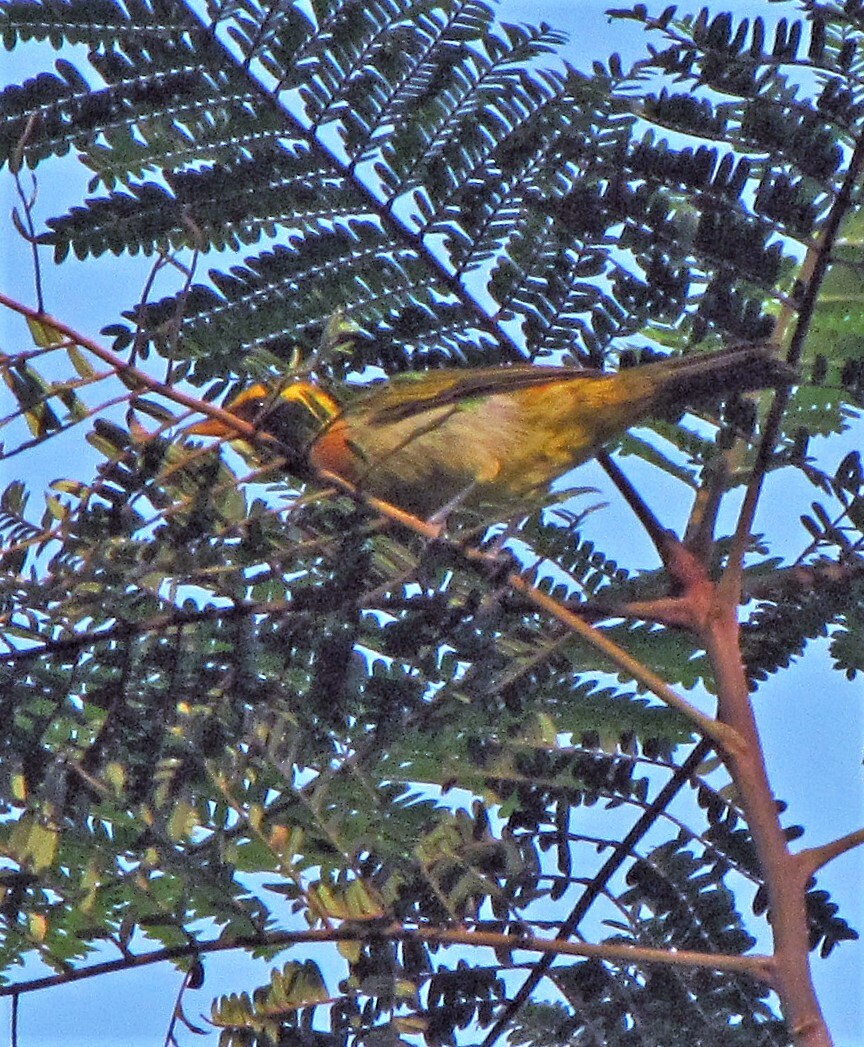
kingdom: Animalia
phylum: Chordata
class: Aves
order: Passeriformes
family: Thraupidae
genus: Hemithraupis
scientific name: Hemithraupis guira
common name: Guira tanager
